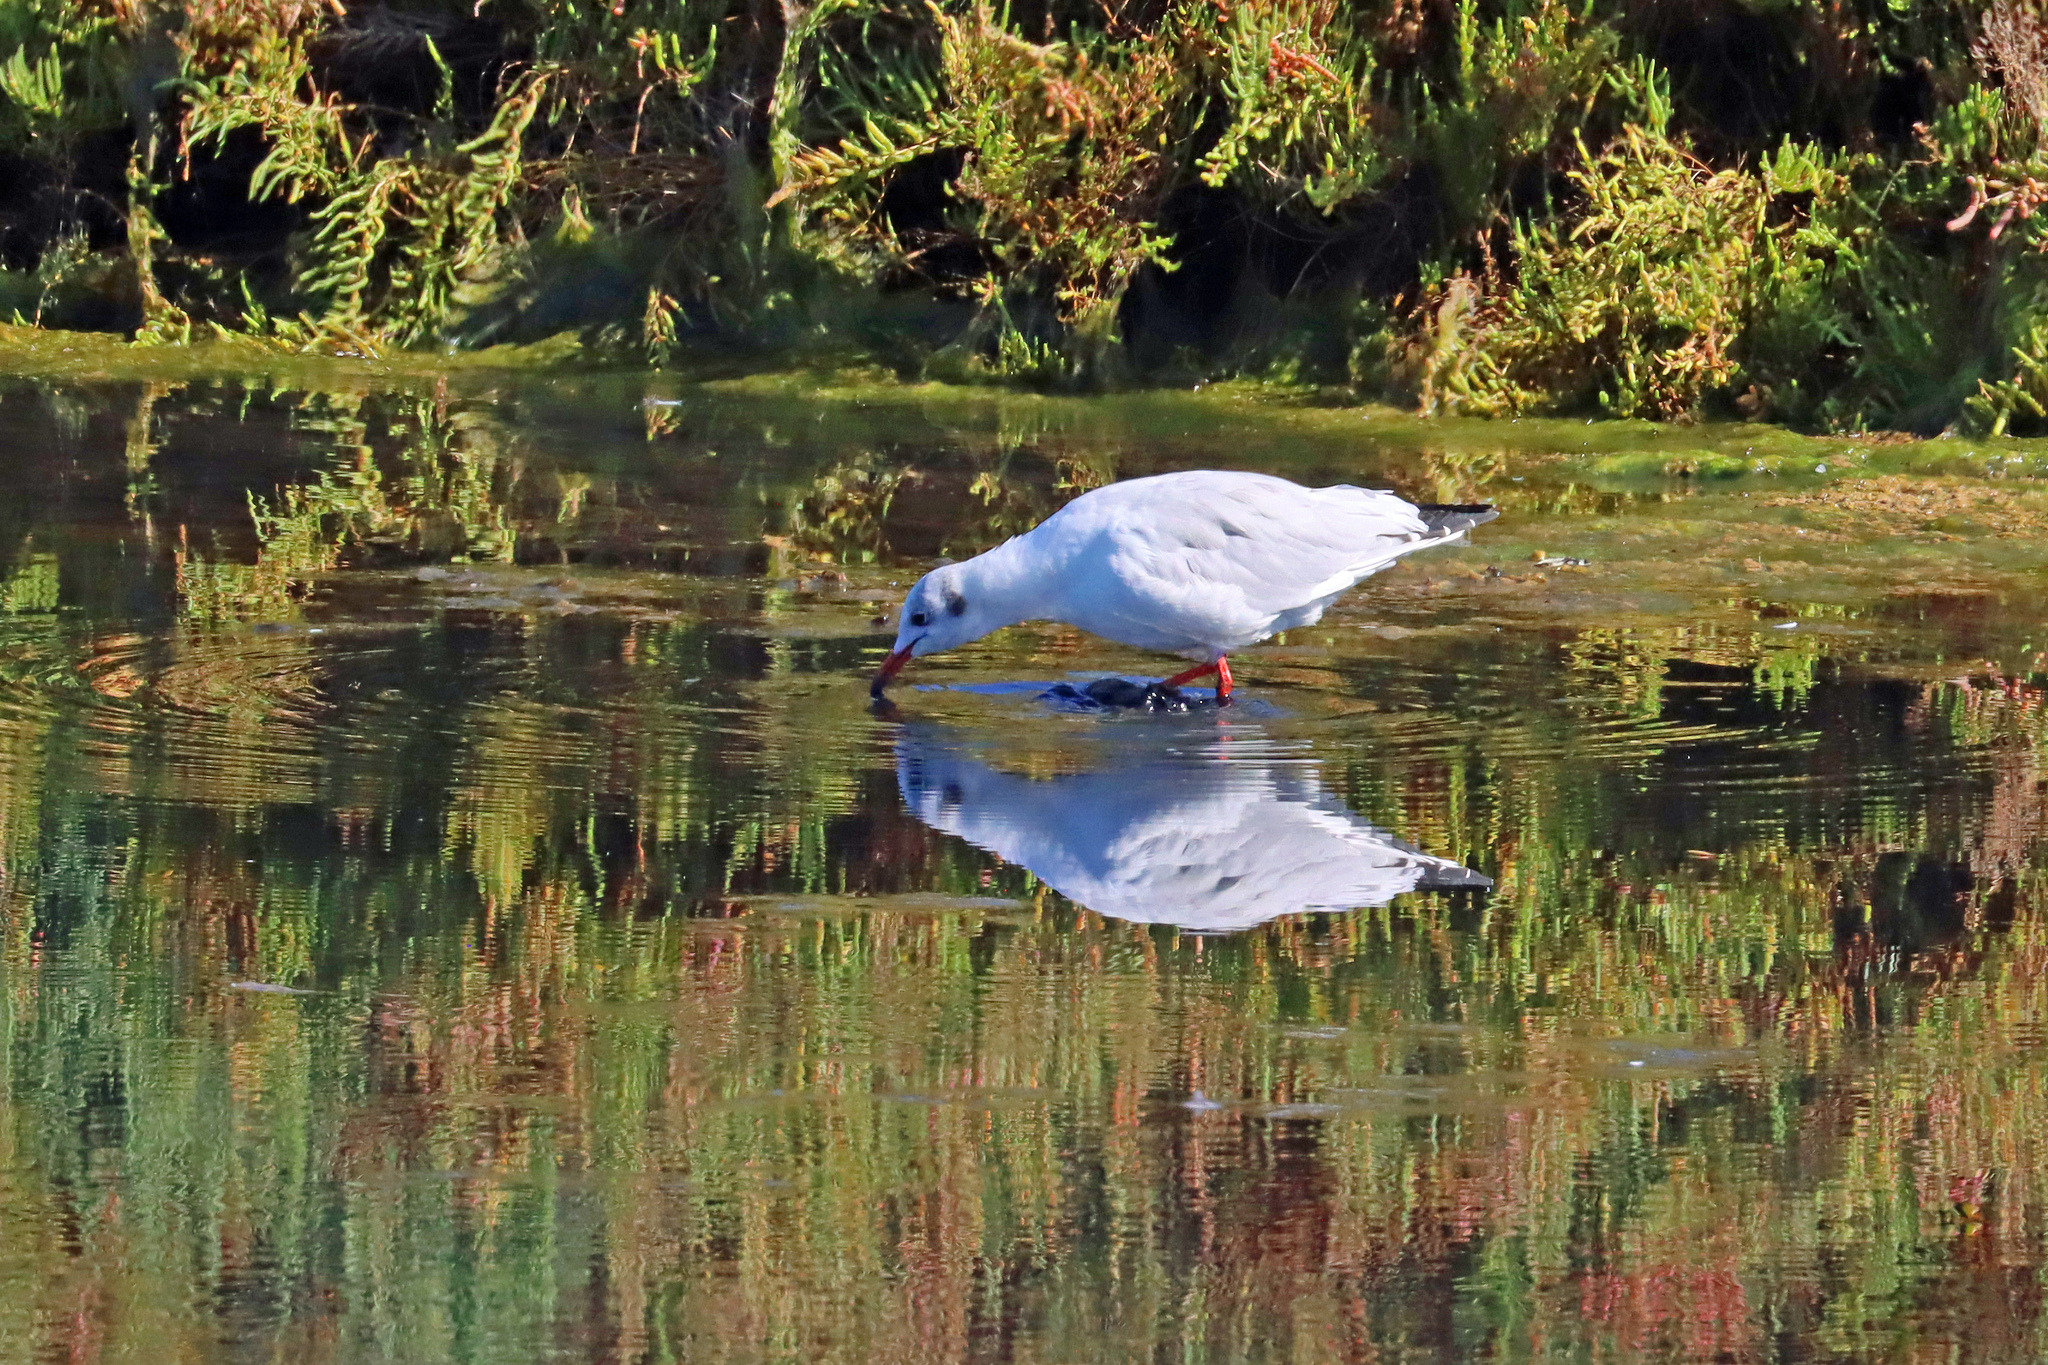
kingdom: Animalia
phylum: Chordata
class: Aves
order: Charadriiformes
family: Laridae
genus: Chroicocephalus
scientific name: Chroicocephalus ridibundus
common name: Black-headed gull
